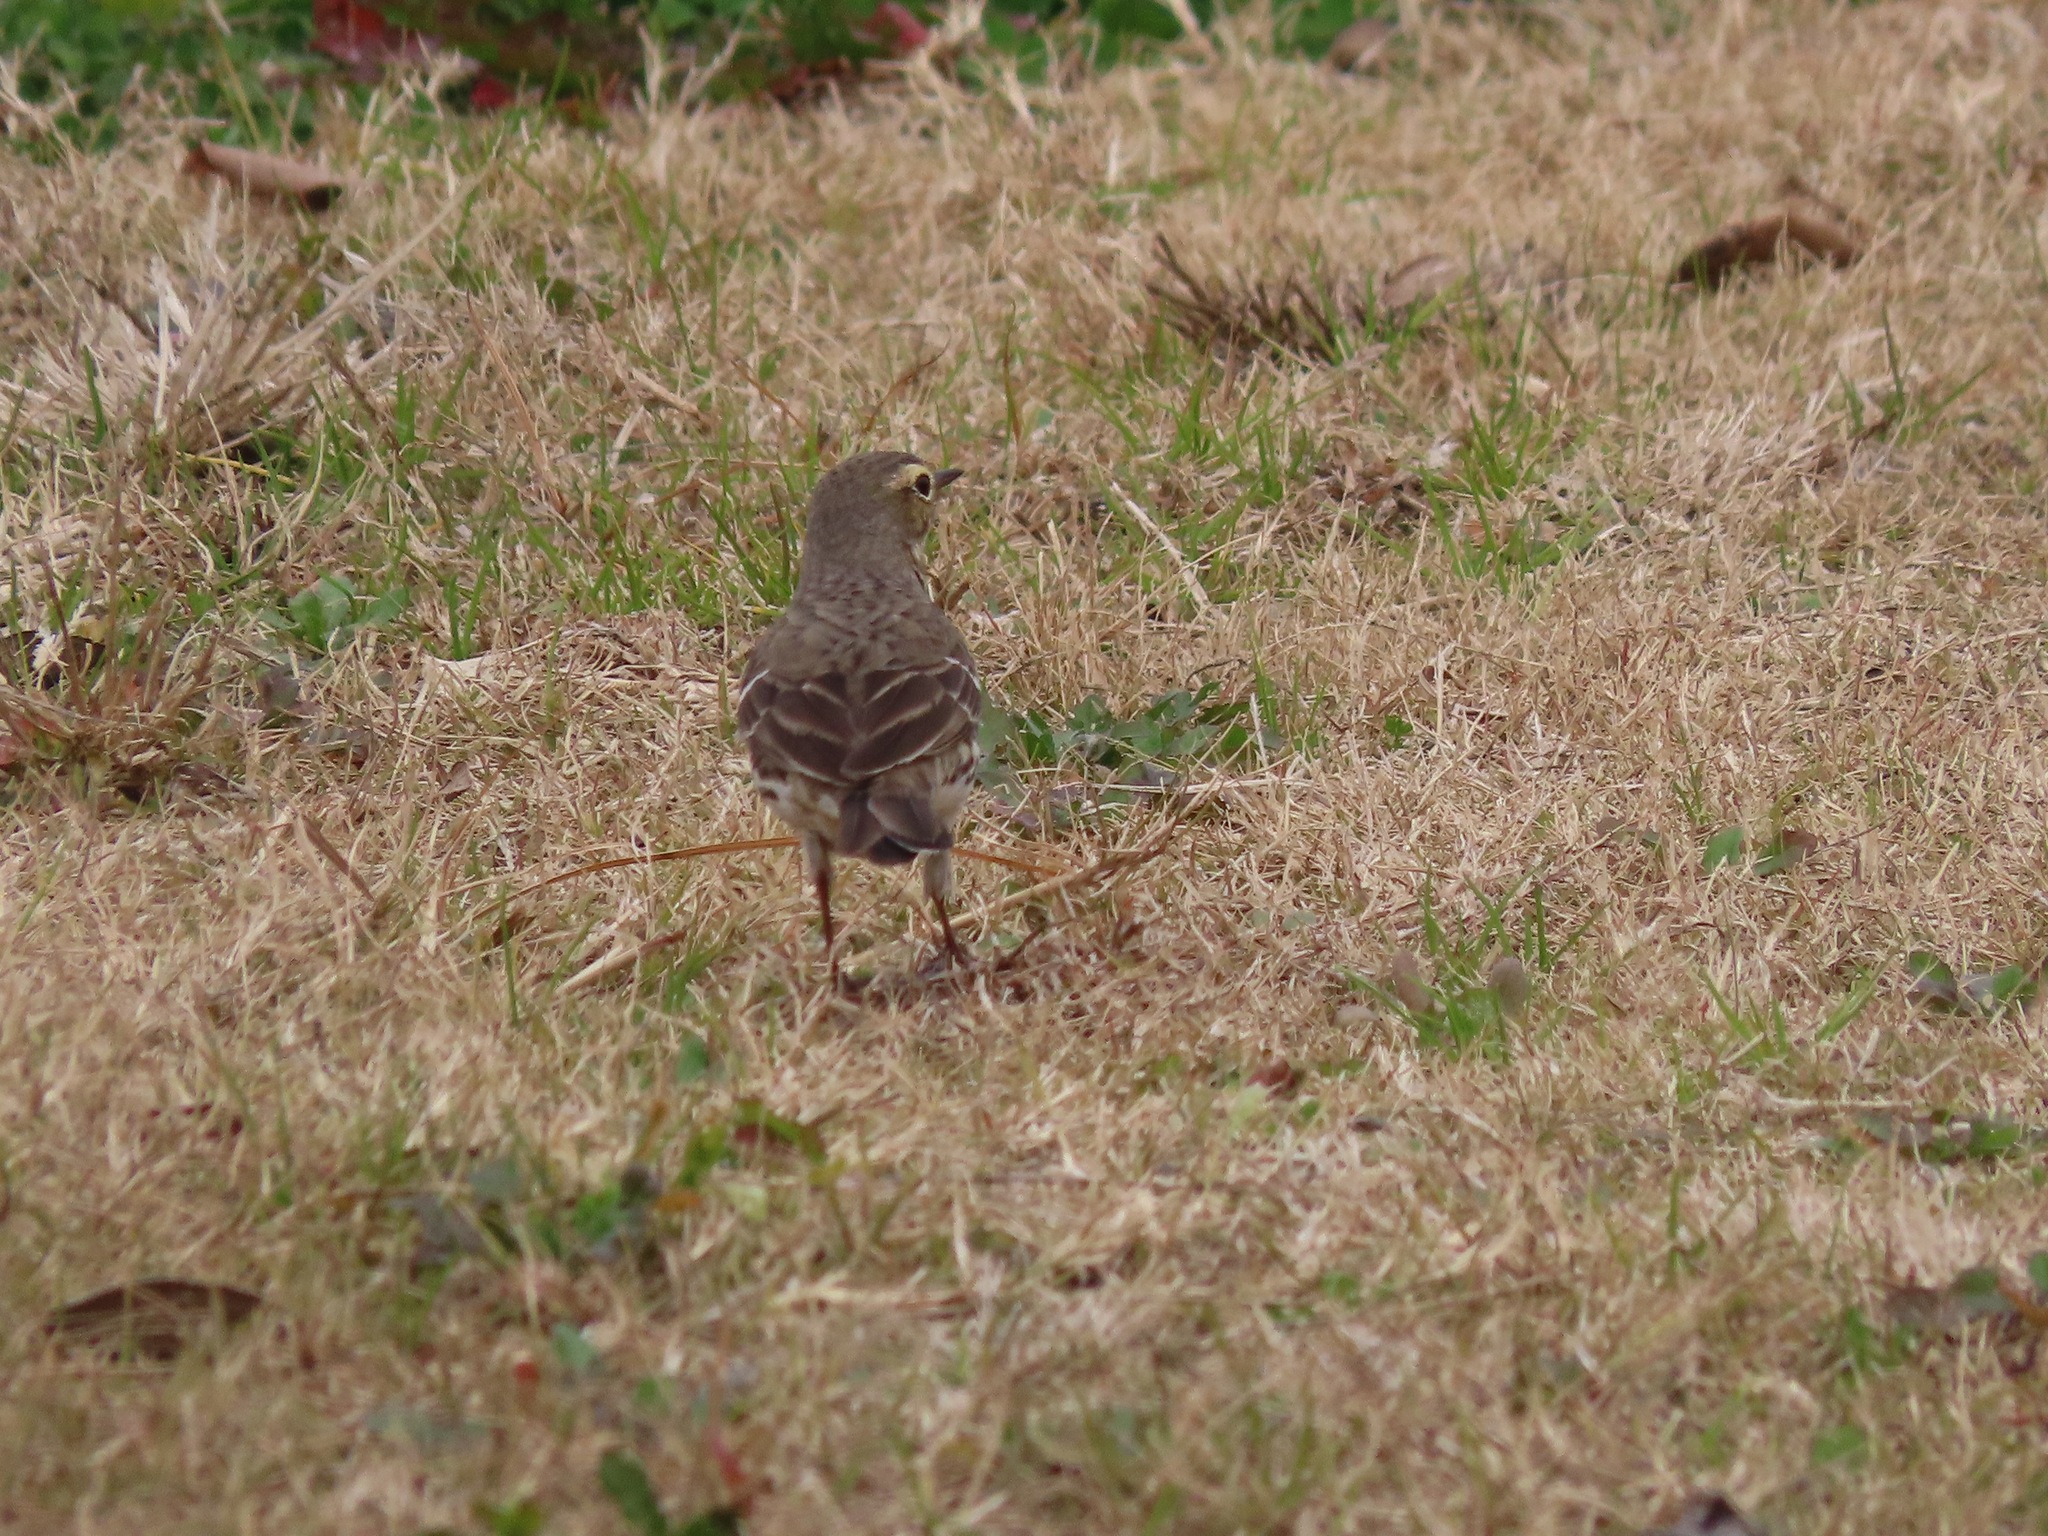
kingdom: Animalia
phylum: Chordata
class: Aves
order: Passeriformes
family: Motacillidae
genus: Anthus
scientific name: Anthus rubescens
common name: Buff-bellied pipit
